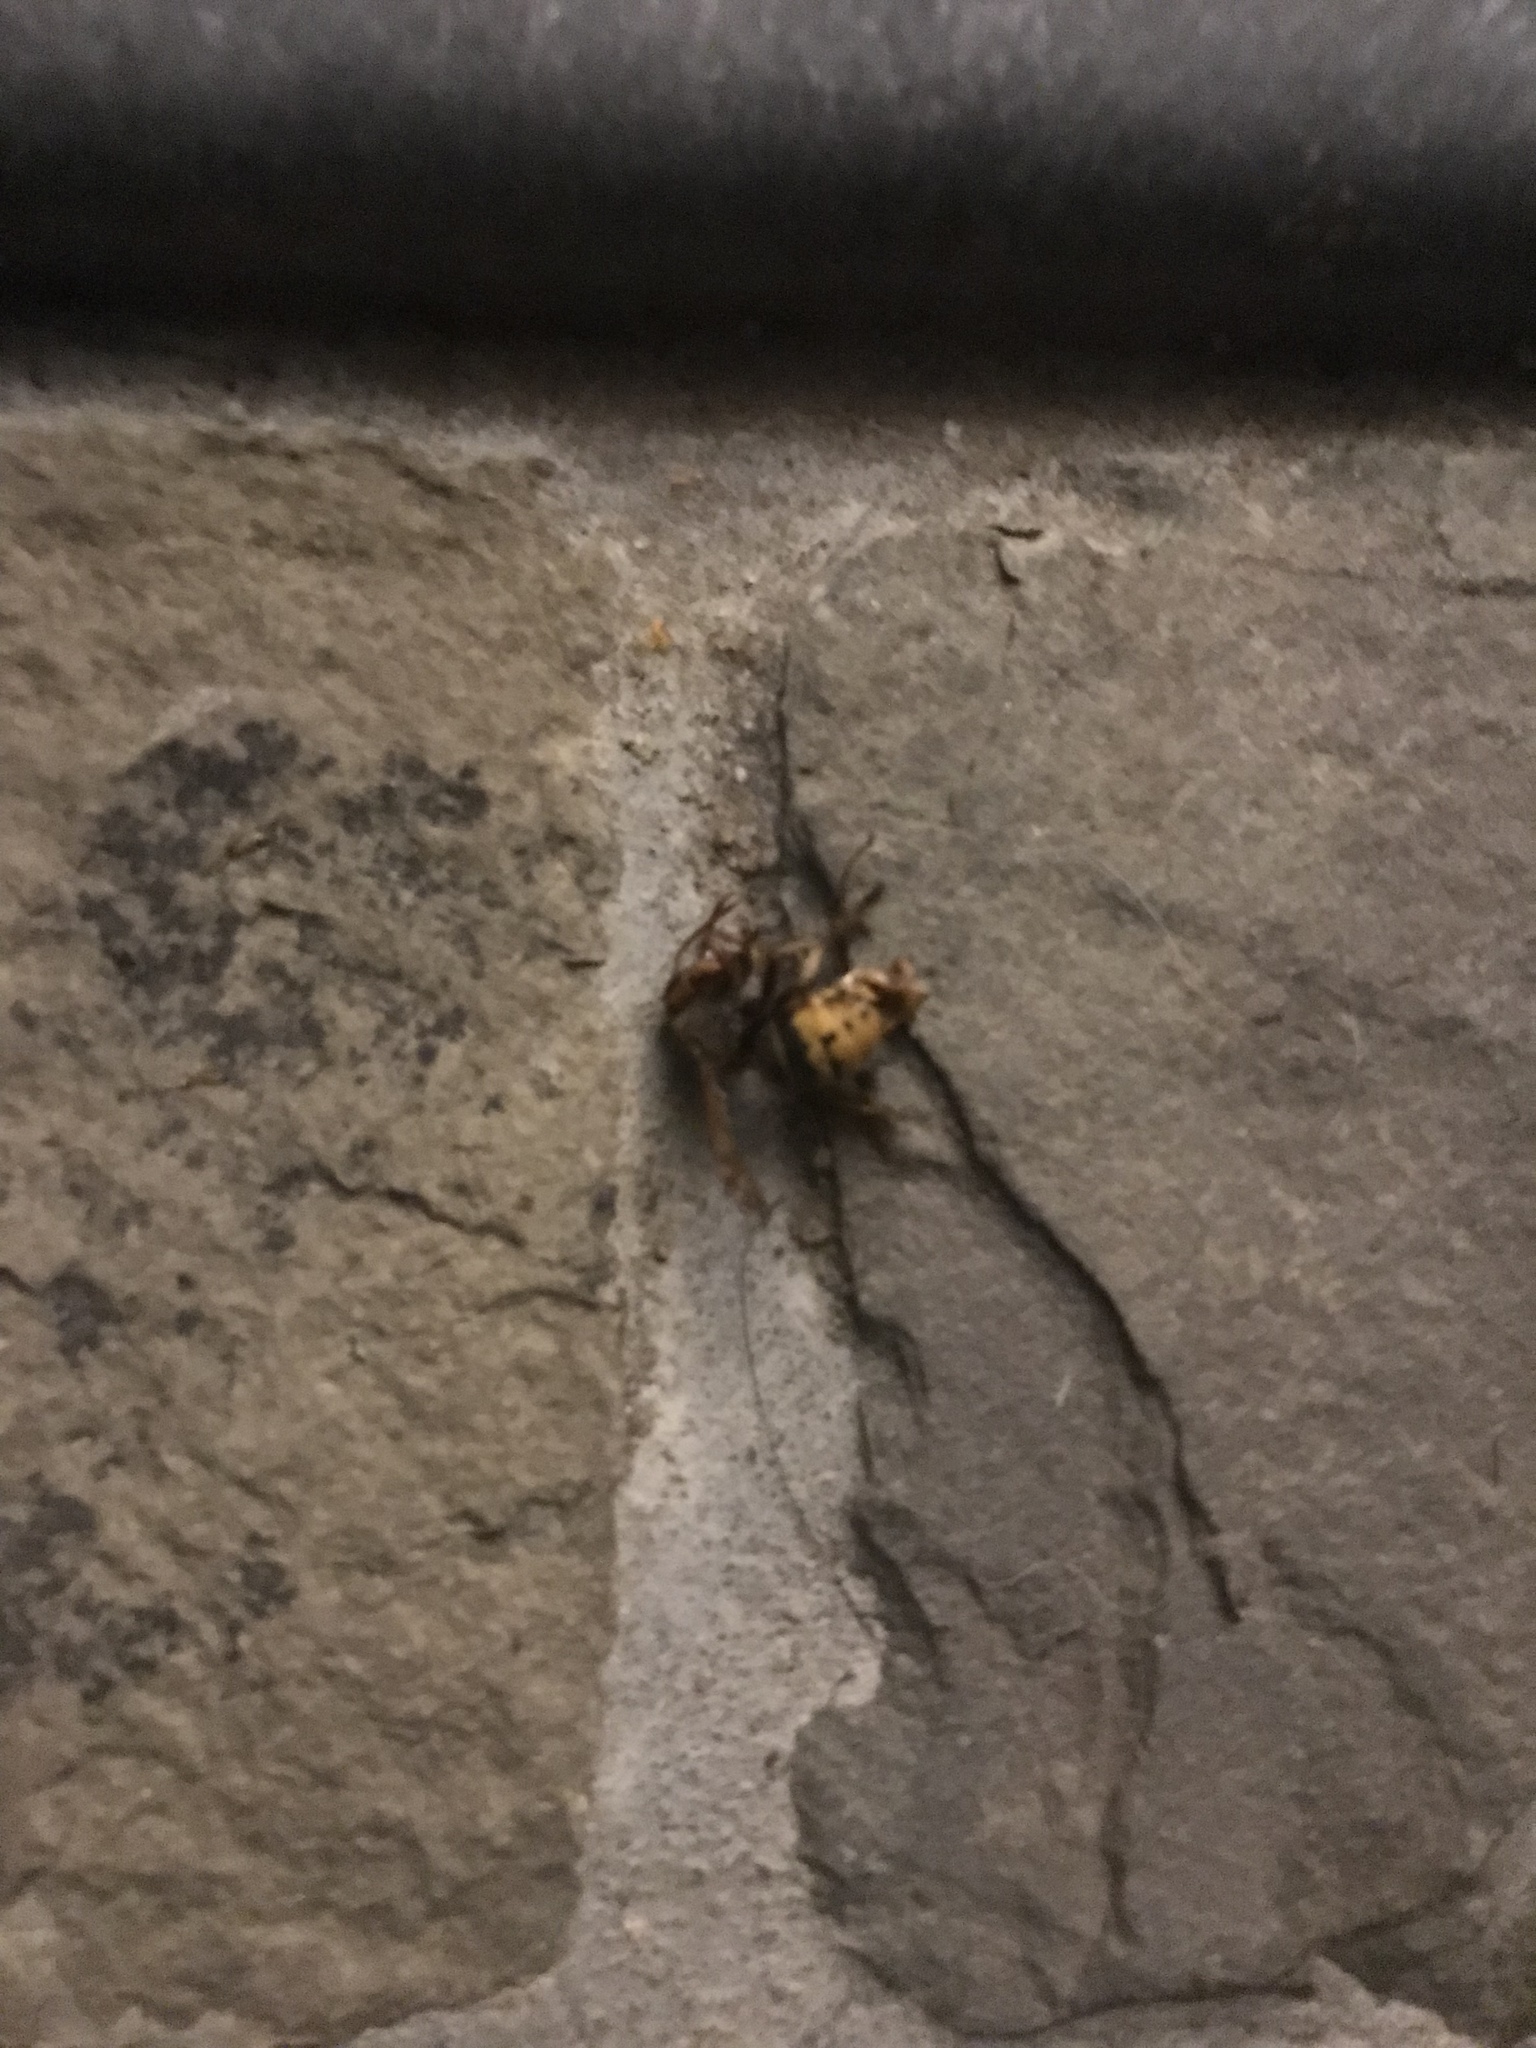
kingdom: Animalia
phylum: Arthropoda
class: Insecta
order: Hymenoptera
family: Vespidae
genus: Vespa
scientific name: Vespa crabro
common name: Hornet
